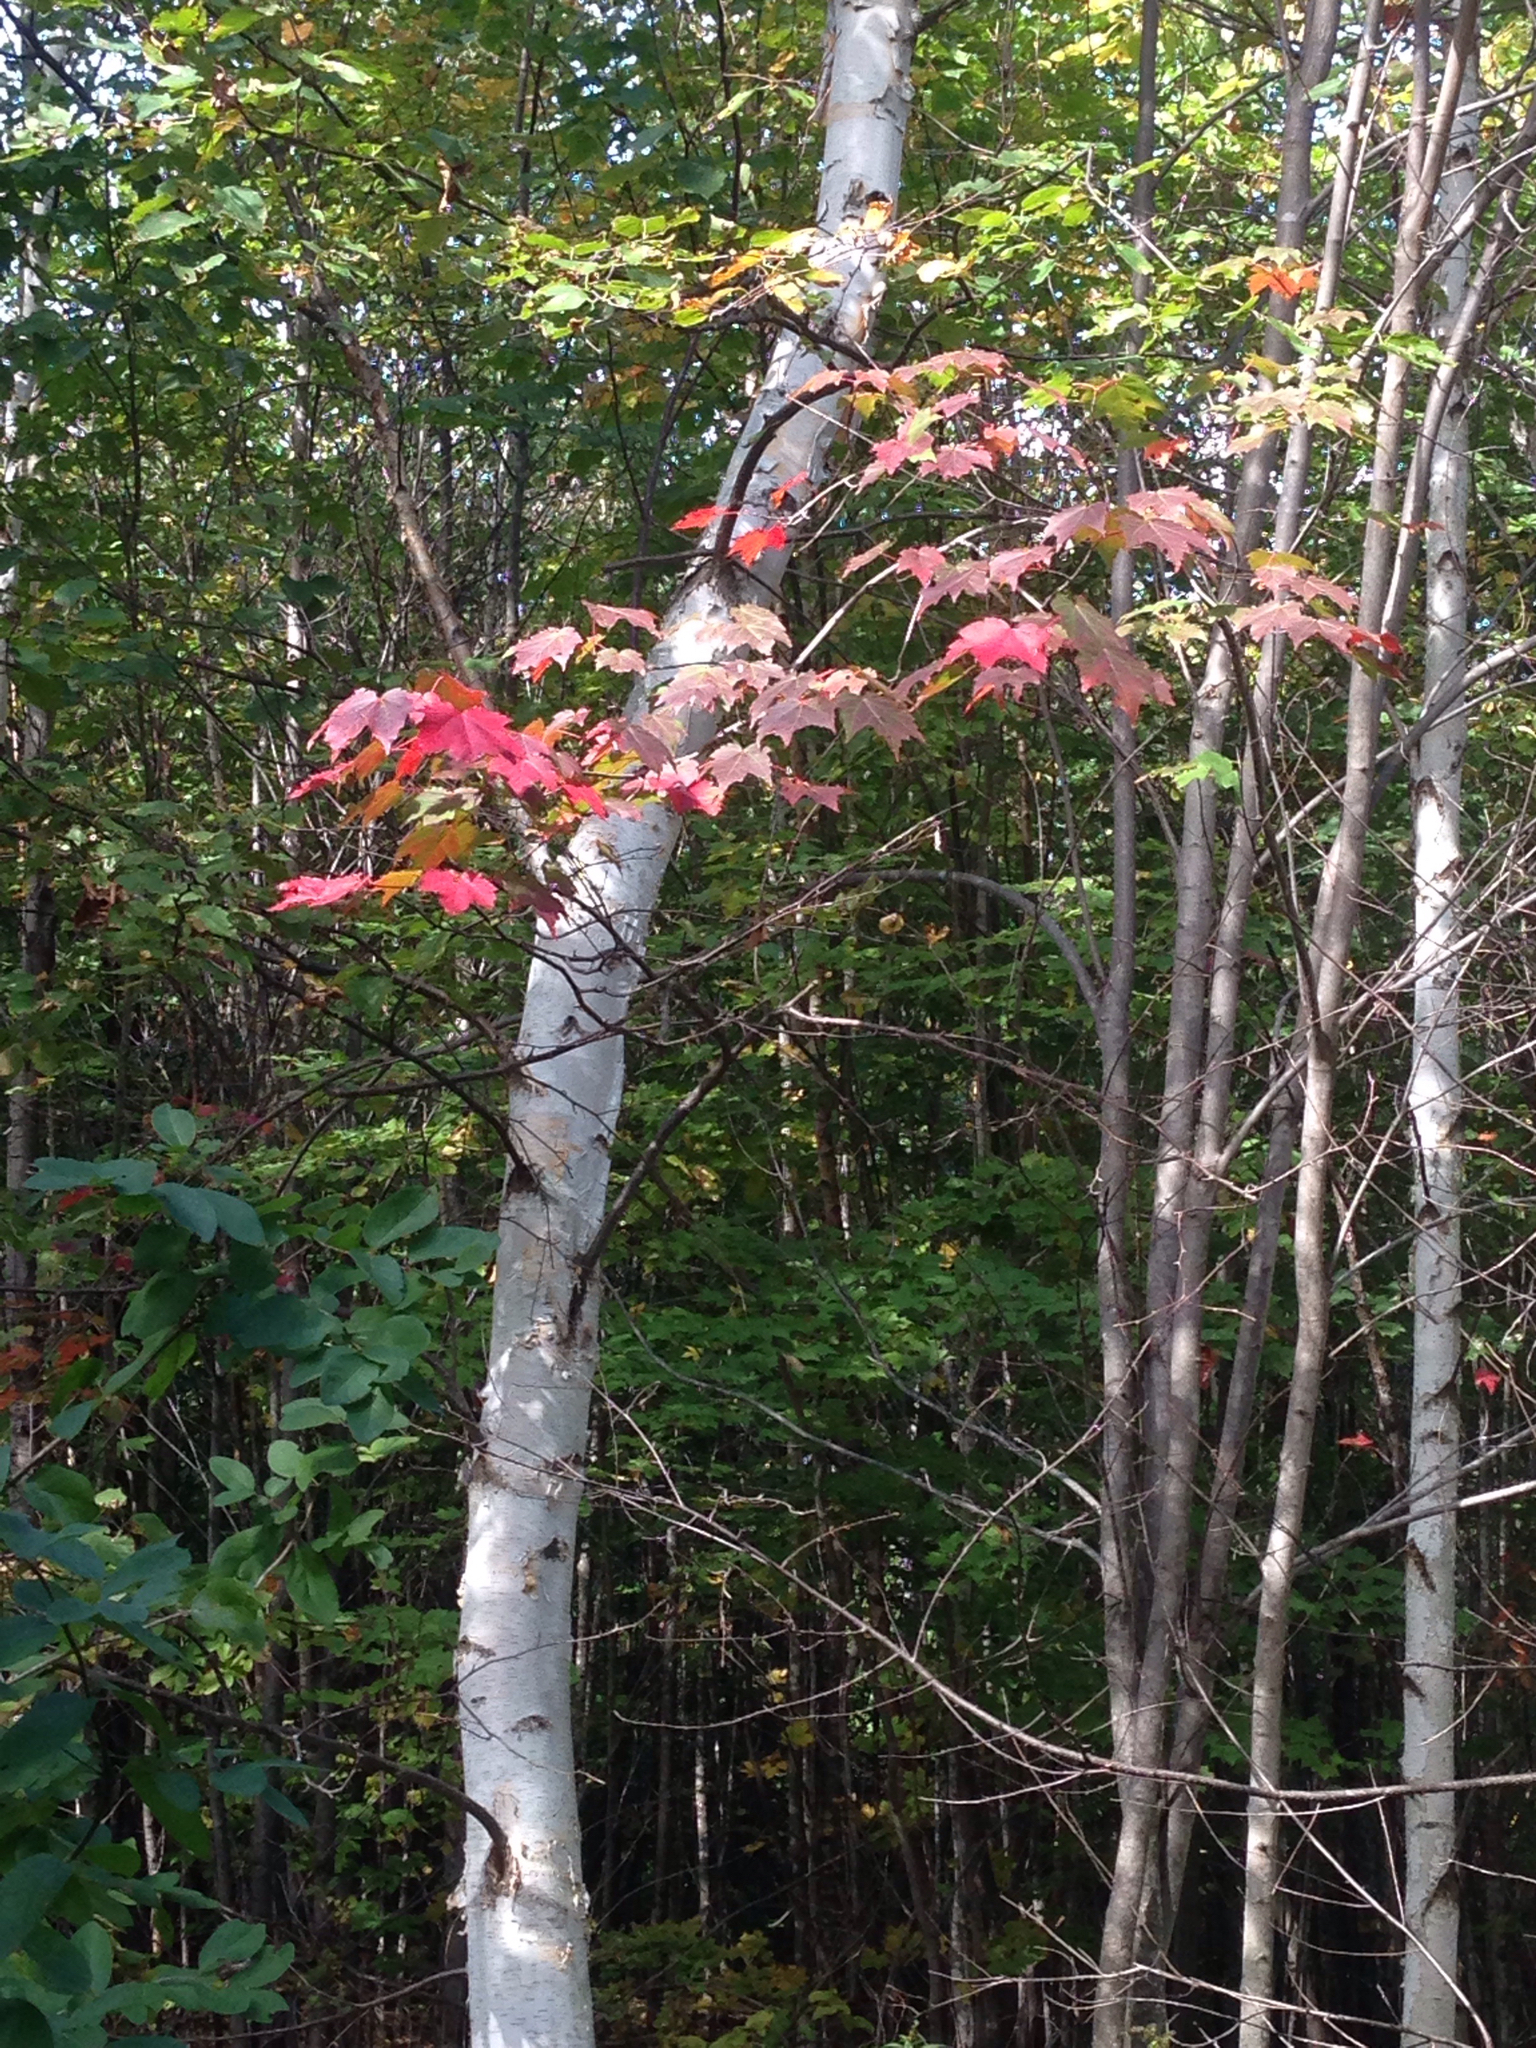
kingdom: Plantae
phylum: Tracheophyta
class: Magnoliopsida
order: Sapindales
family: Sapindaceae
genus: Acer
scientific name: Acer rubrum
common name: Red maple
